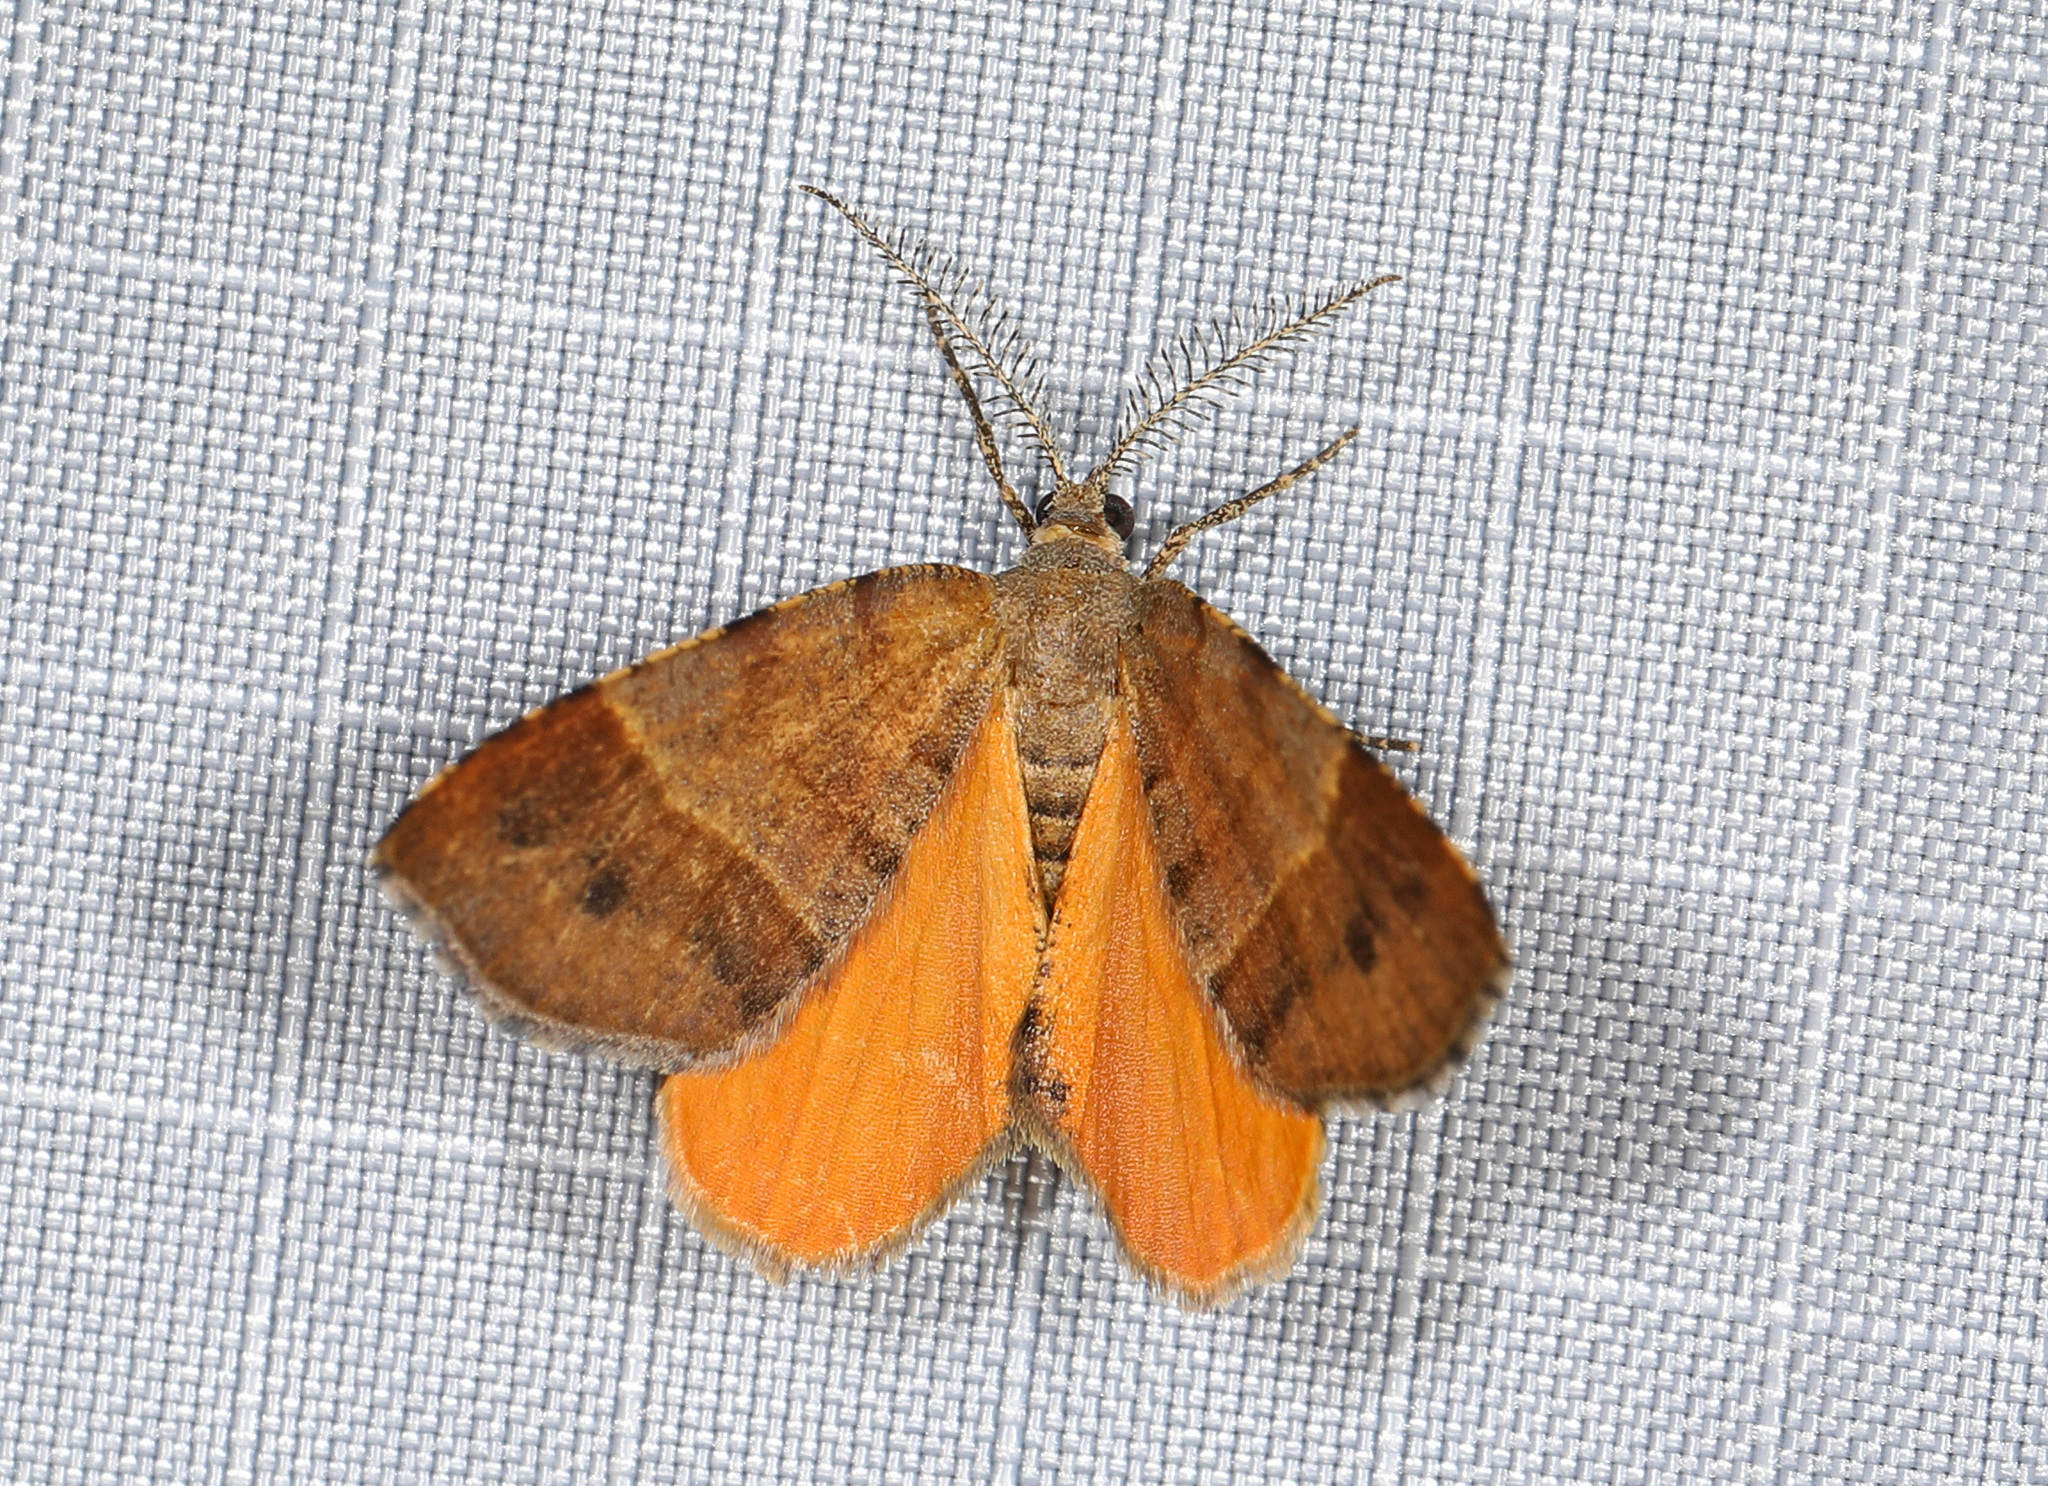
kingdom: Animalia
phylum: Arthropoda
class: Insecta
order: Lepidoptera
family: Geometridae
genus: Mellilla
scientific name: Mellilla xanthometata
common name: Orange wing moth
